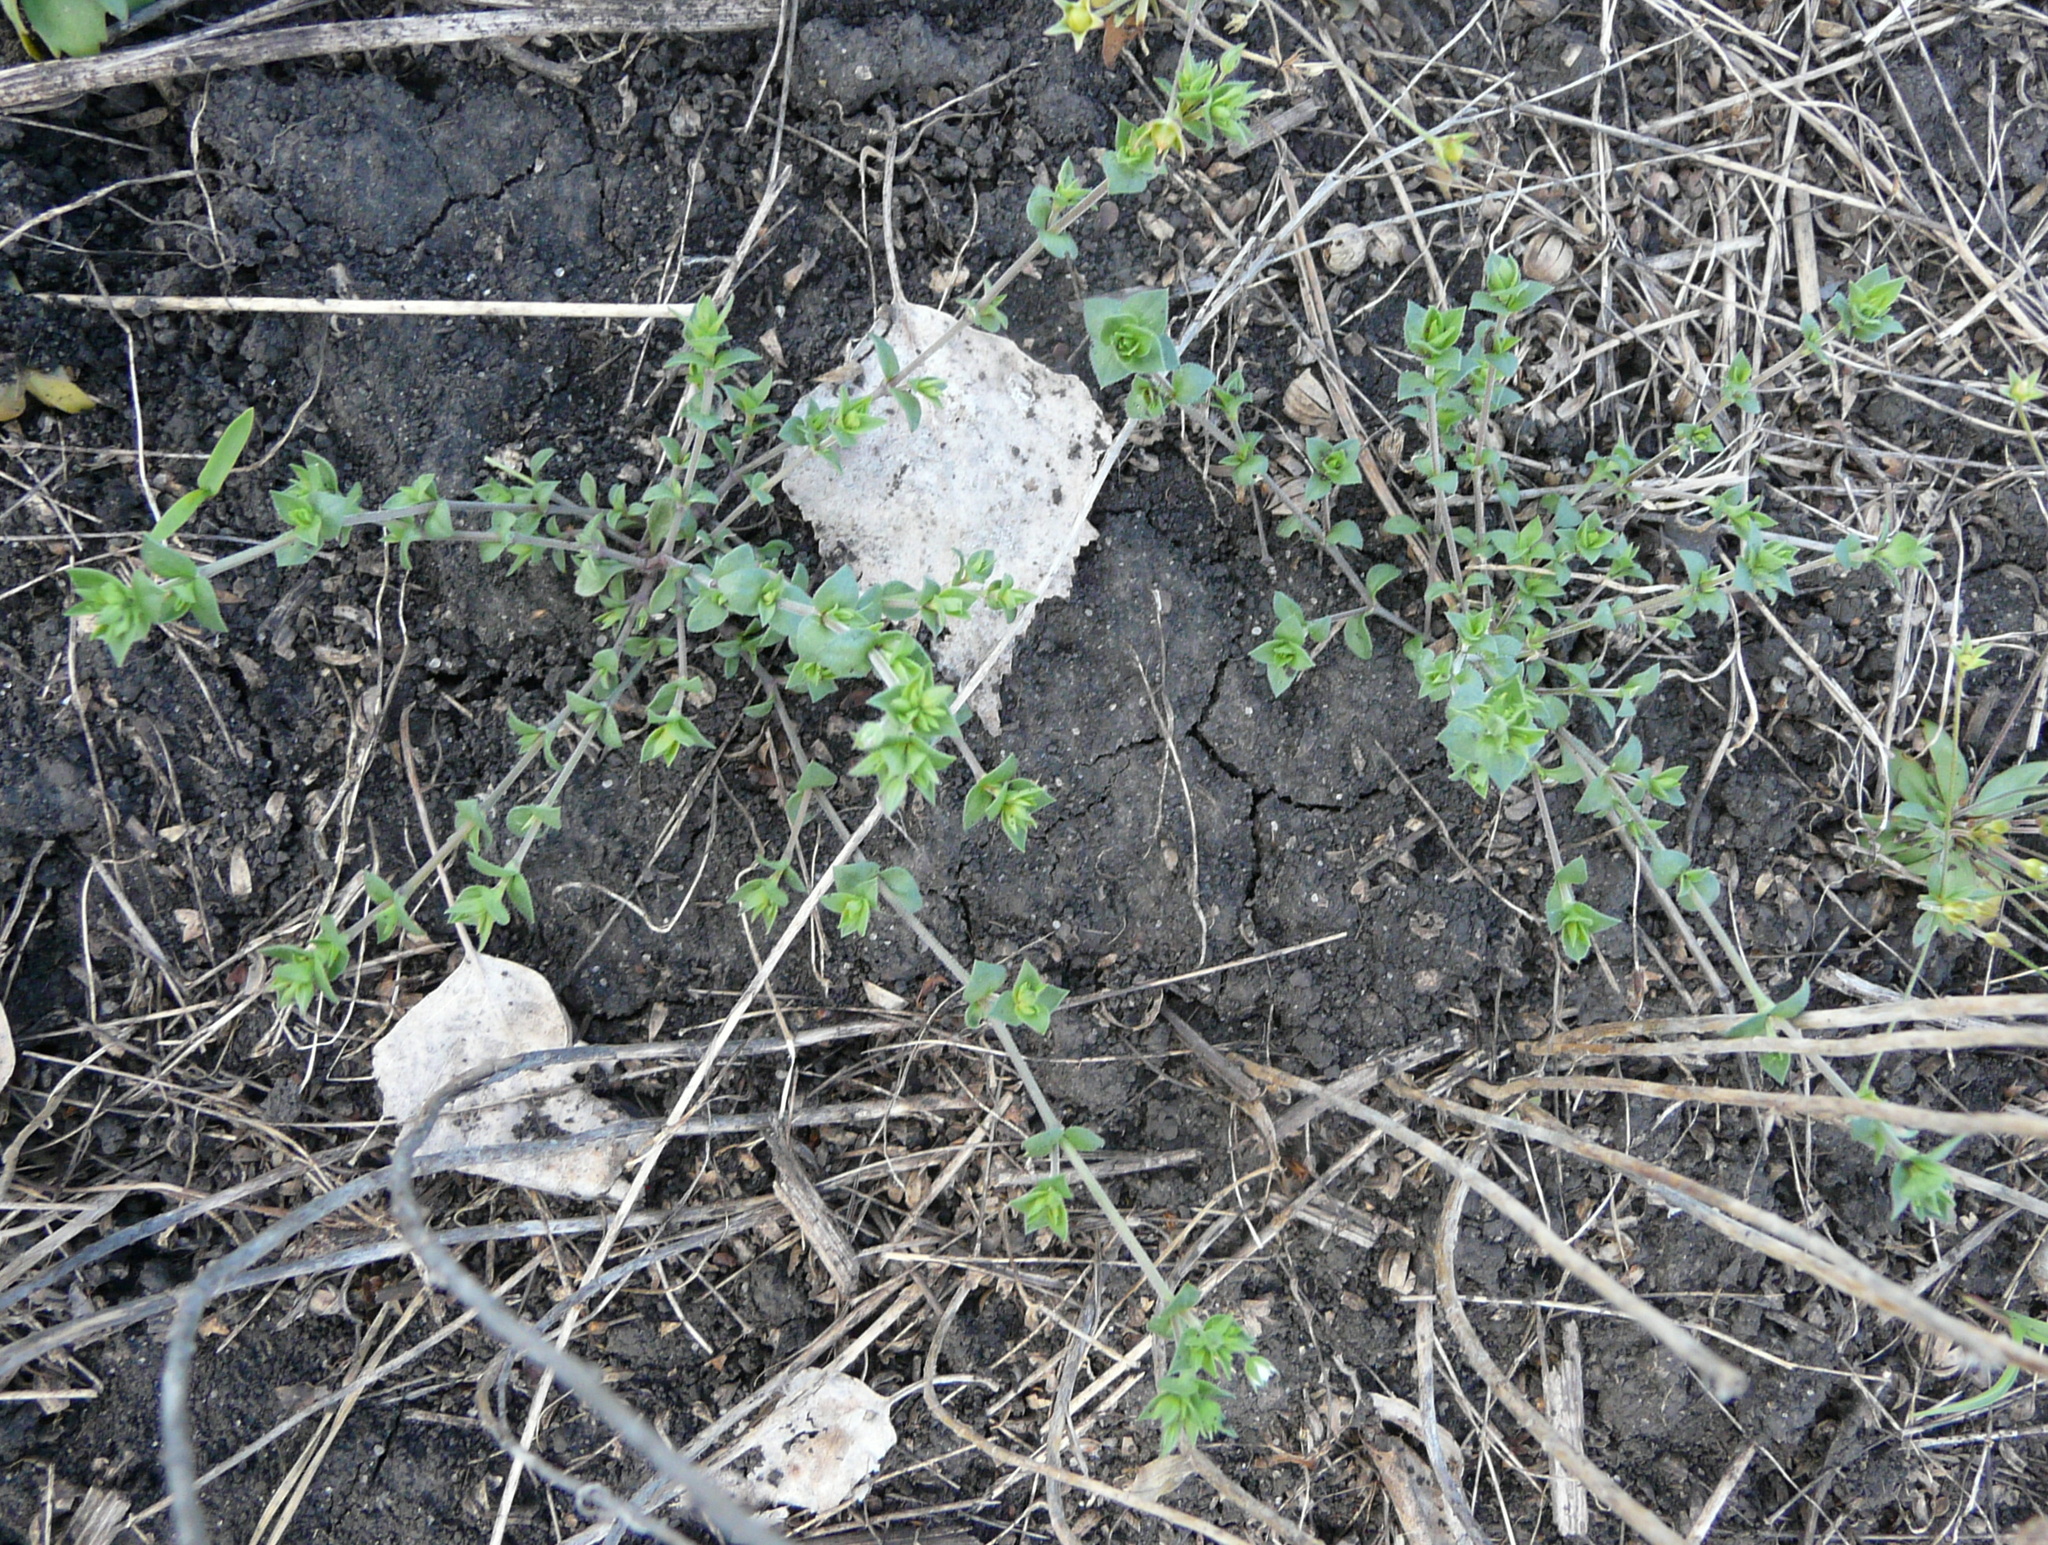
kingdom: Plantae
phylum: Tracheophyta
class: Magnoliopsida
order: Caryophyllales
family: Caryophyllaceae
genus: Arenaria
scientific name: Arenaria serpyllifolia
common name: Thyme-leaved sandwort
